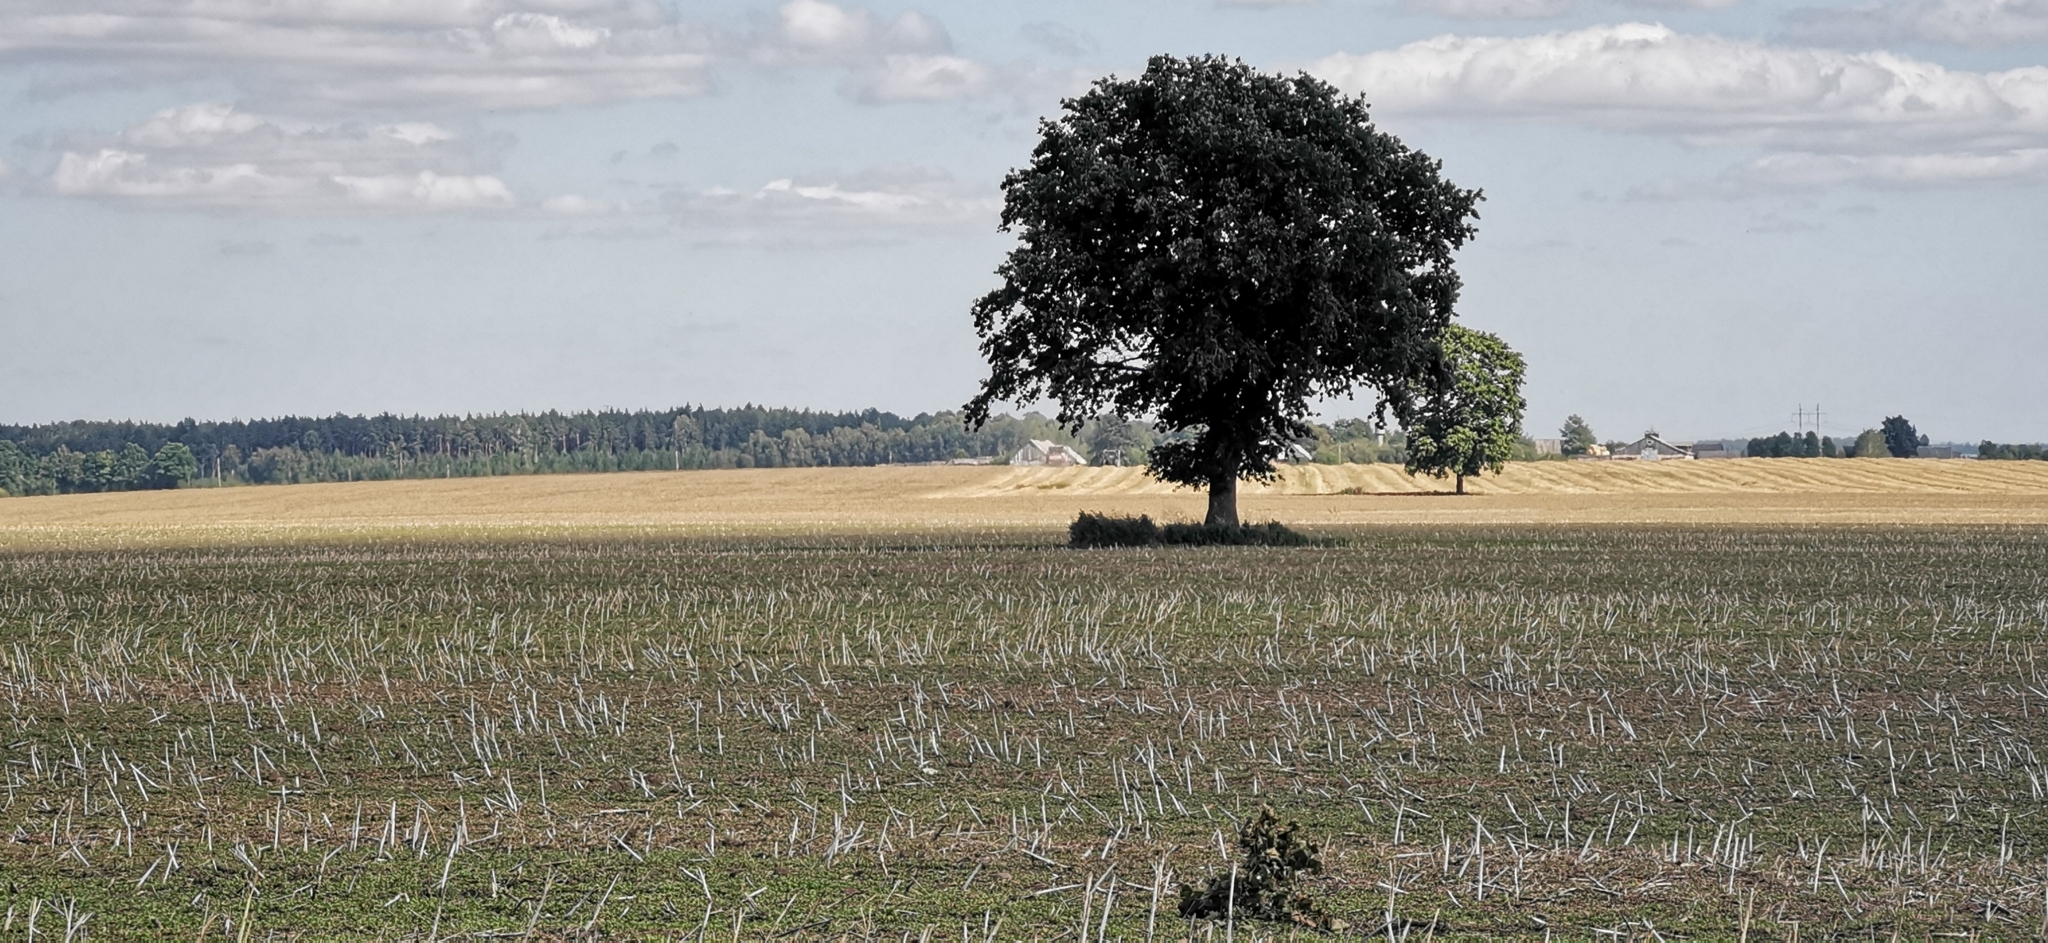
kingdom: Plantae
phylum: Tracheophyta
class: Magnoliopsida
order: Sapindales
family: Sapindaceae
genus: Acer
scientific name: Acer platanoides
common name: Norway maple
